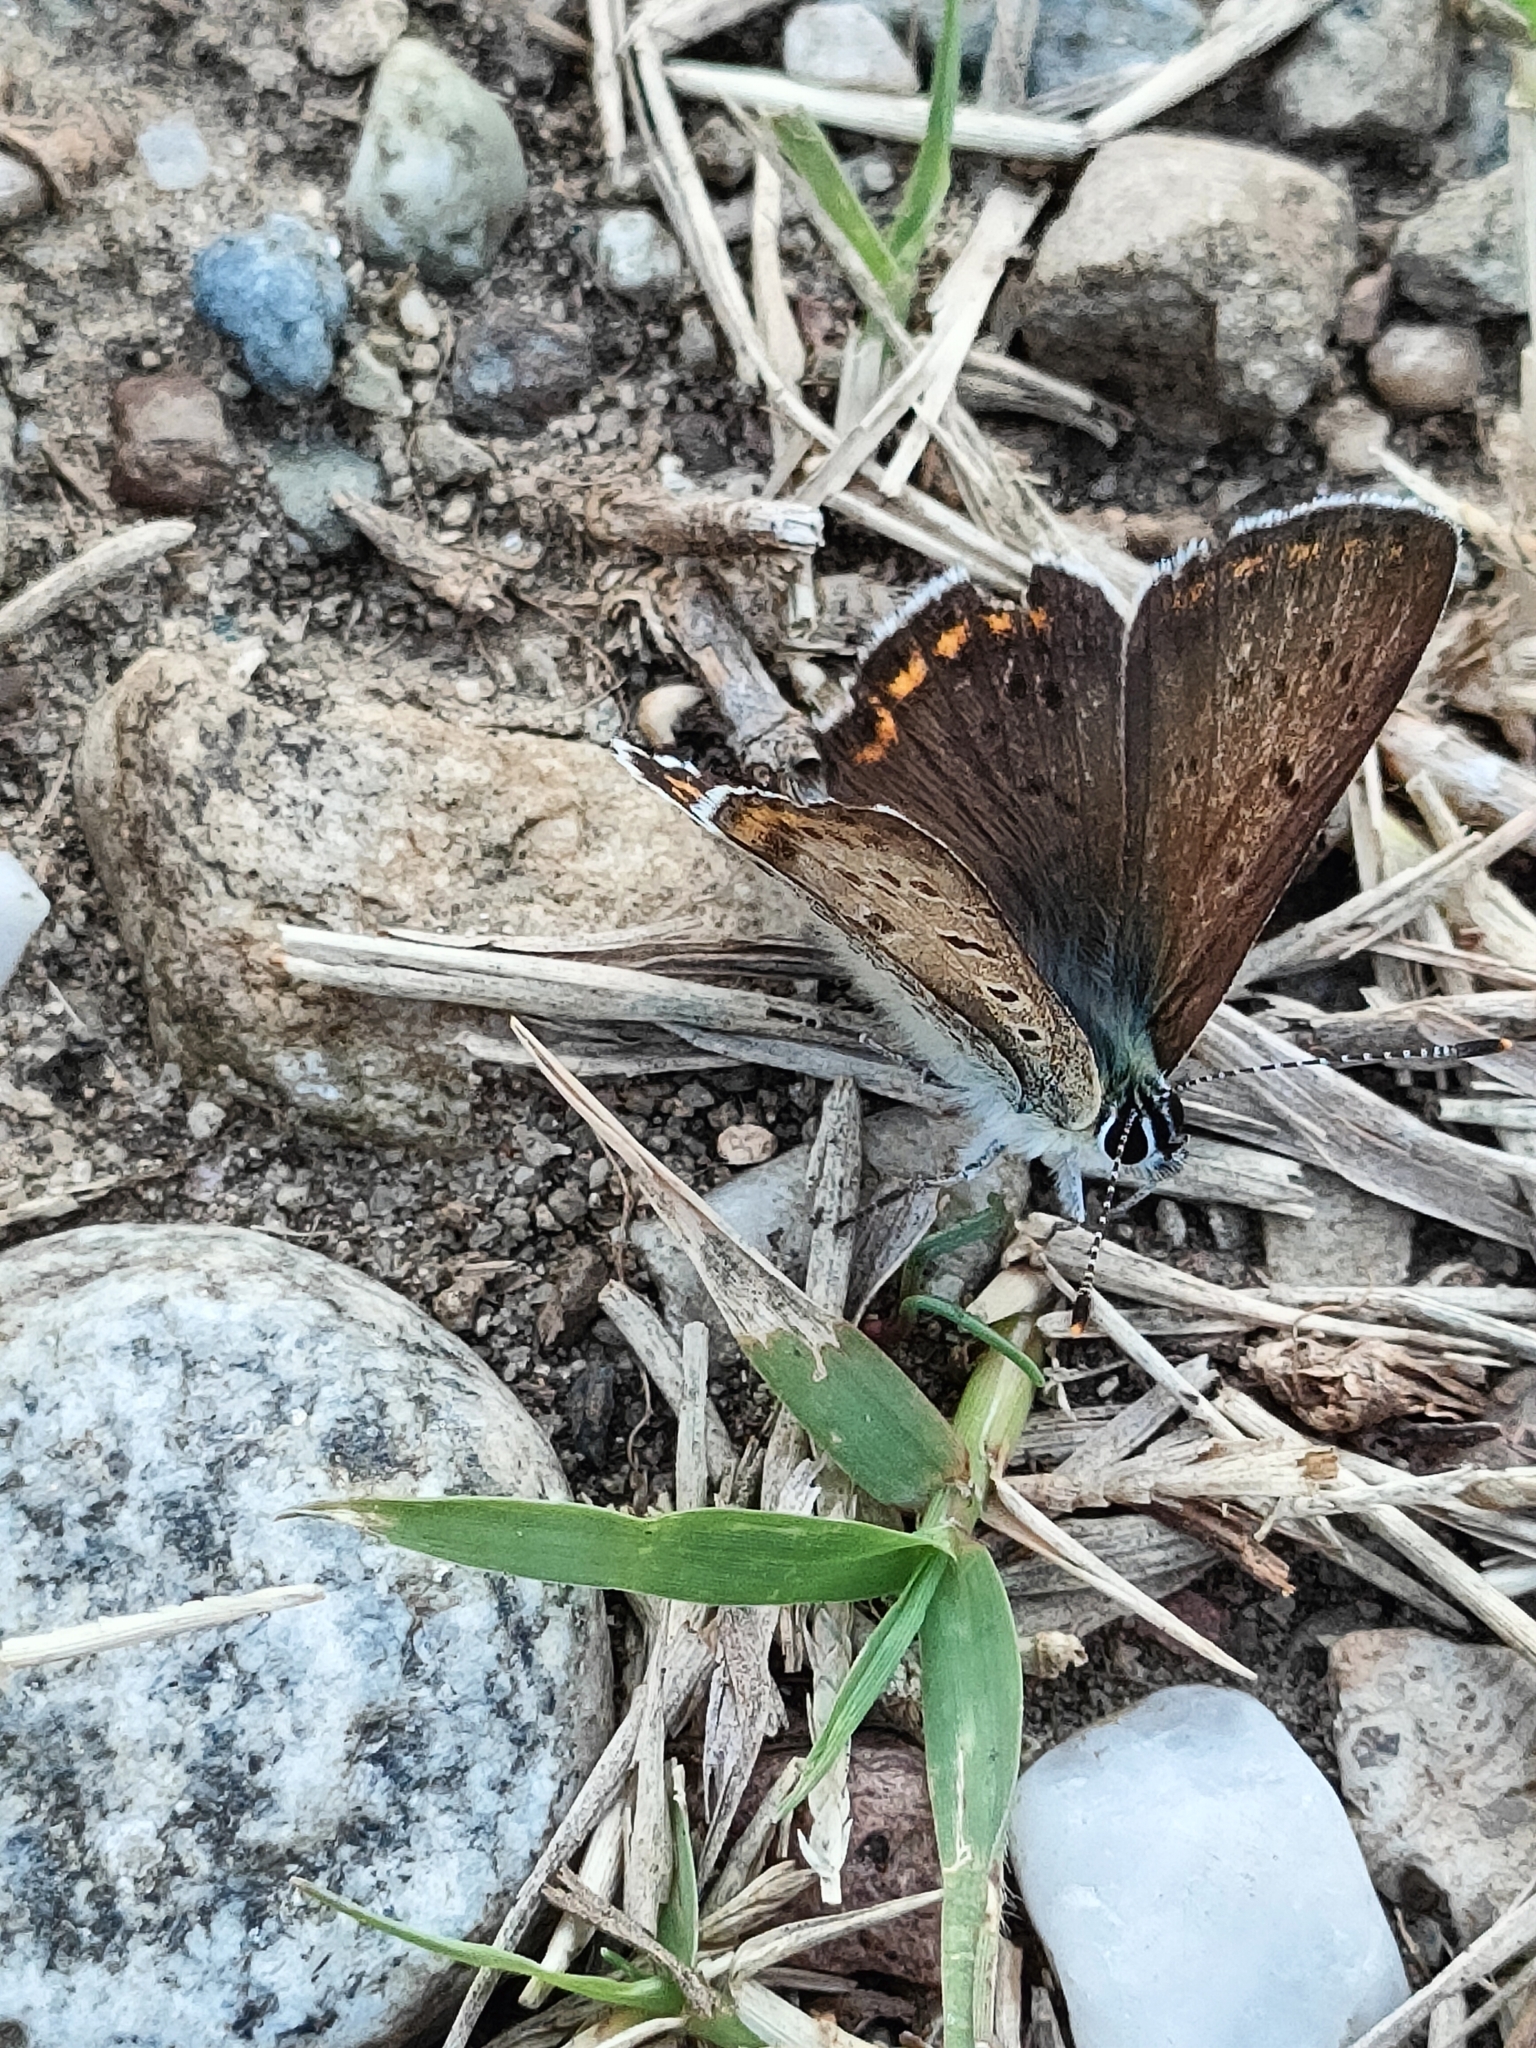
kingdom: Animalia
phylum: Arthropoda
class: Insecta
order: Lepidoptera
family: Lycaenidae
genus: Loweia
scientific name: Loweia tityrus
